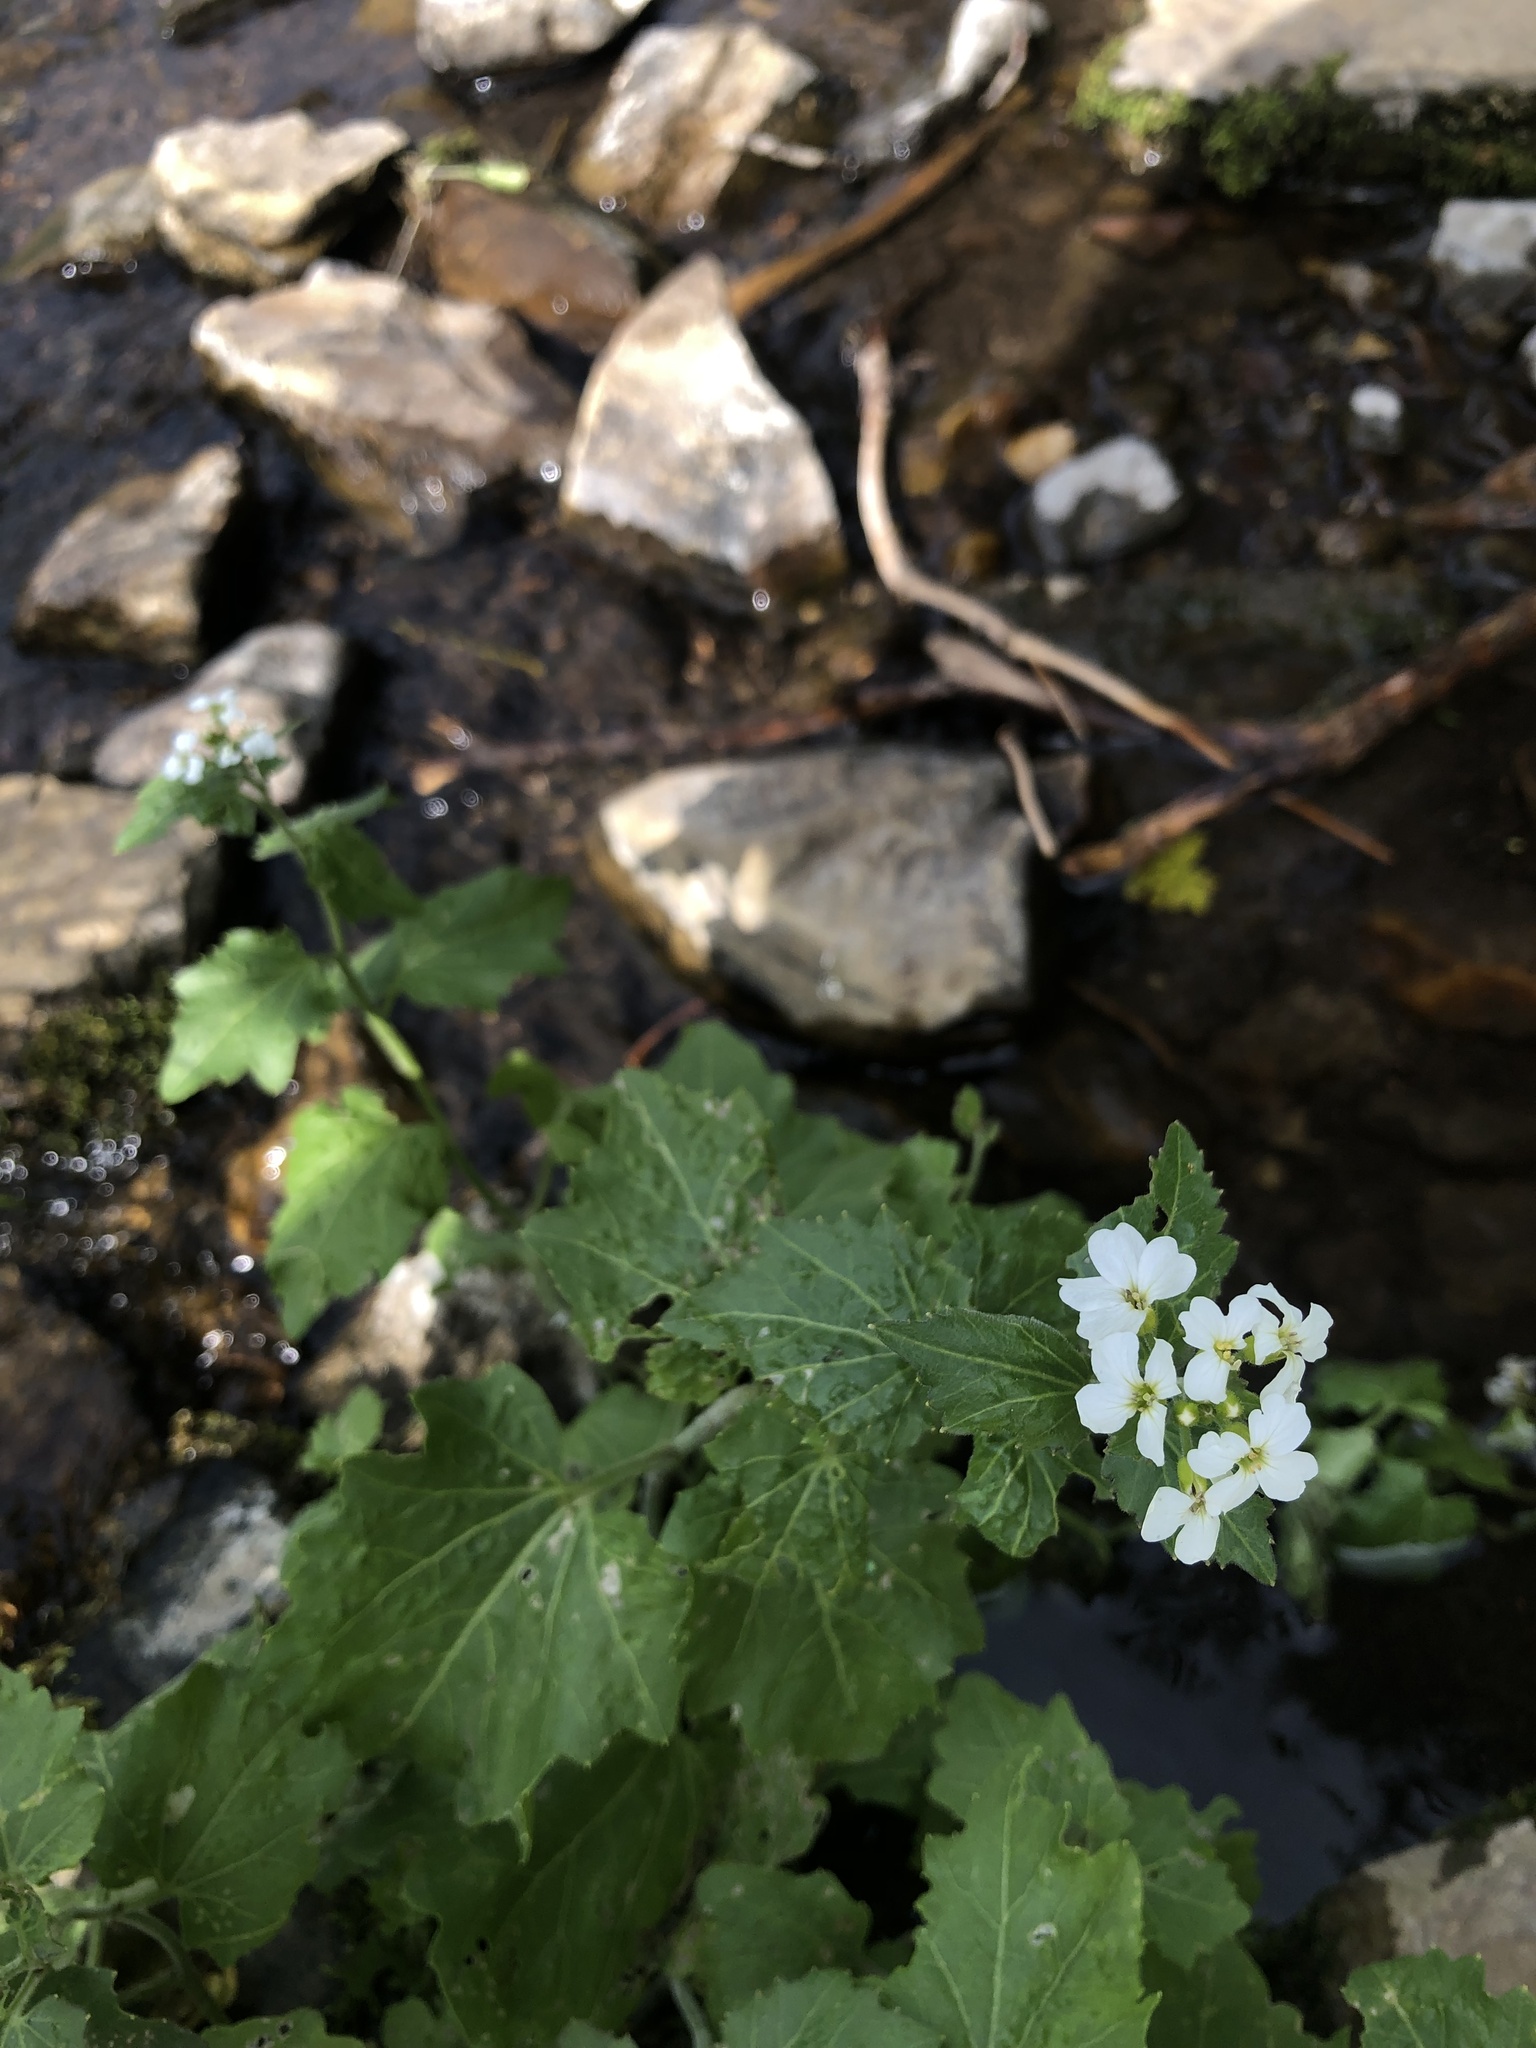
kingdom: Plantae
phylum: Tracheophyta
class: Magnoliopsida
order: Brassicales
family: Brassicaceae
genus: Cardamine
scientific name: Cardamine cordifolia
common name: Heart-leaf bittercress
